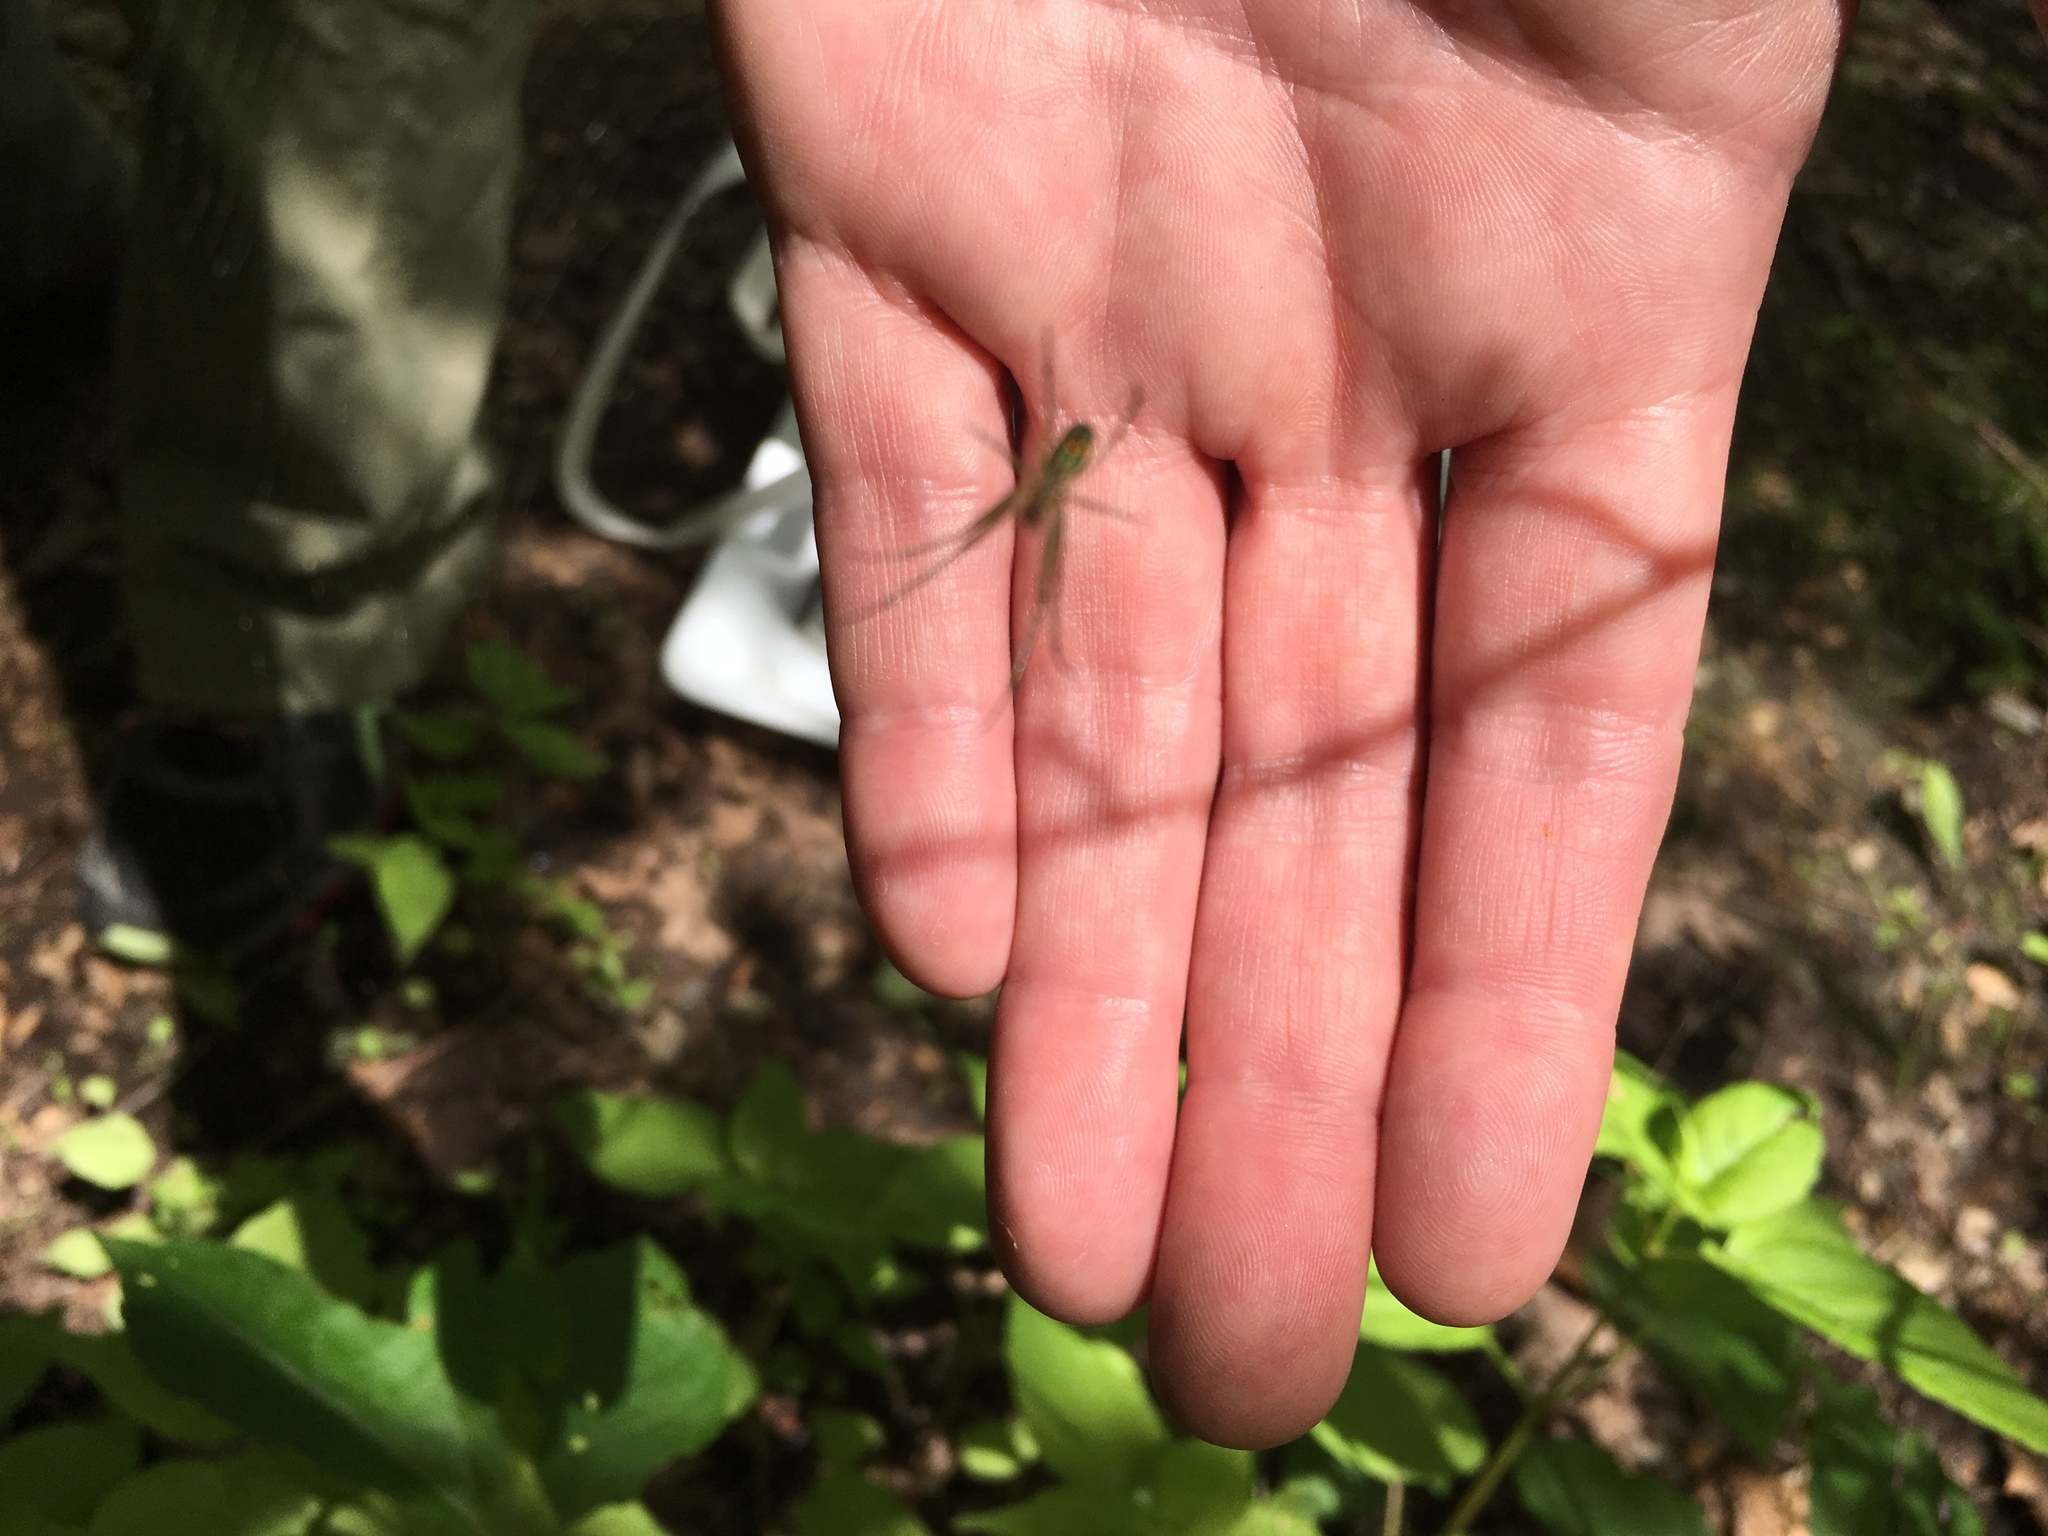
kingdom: Animalia
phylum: Arthropoda
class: Arachnida
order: Araneae
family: Tetragnathidae
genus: Leucauge
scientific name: Leucauge venusta
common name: Longjawed orb weavers
